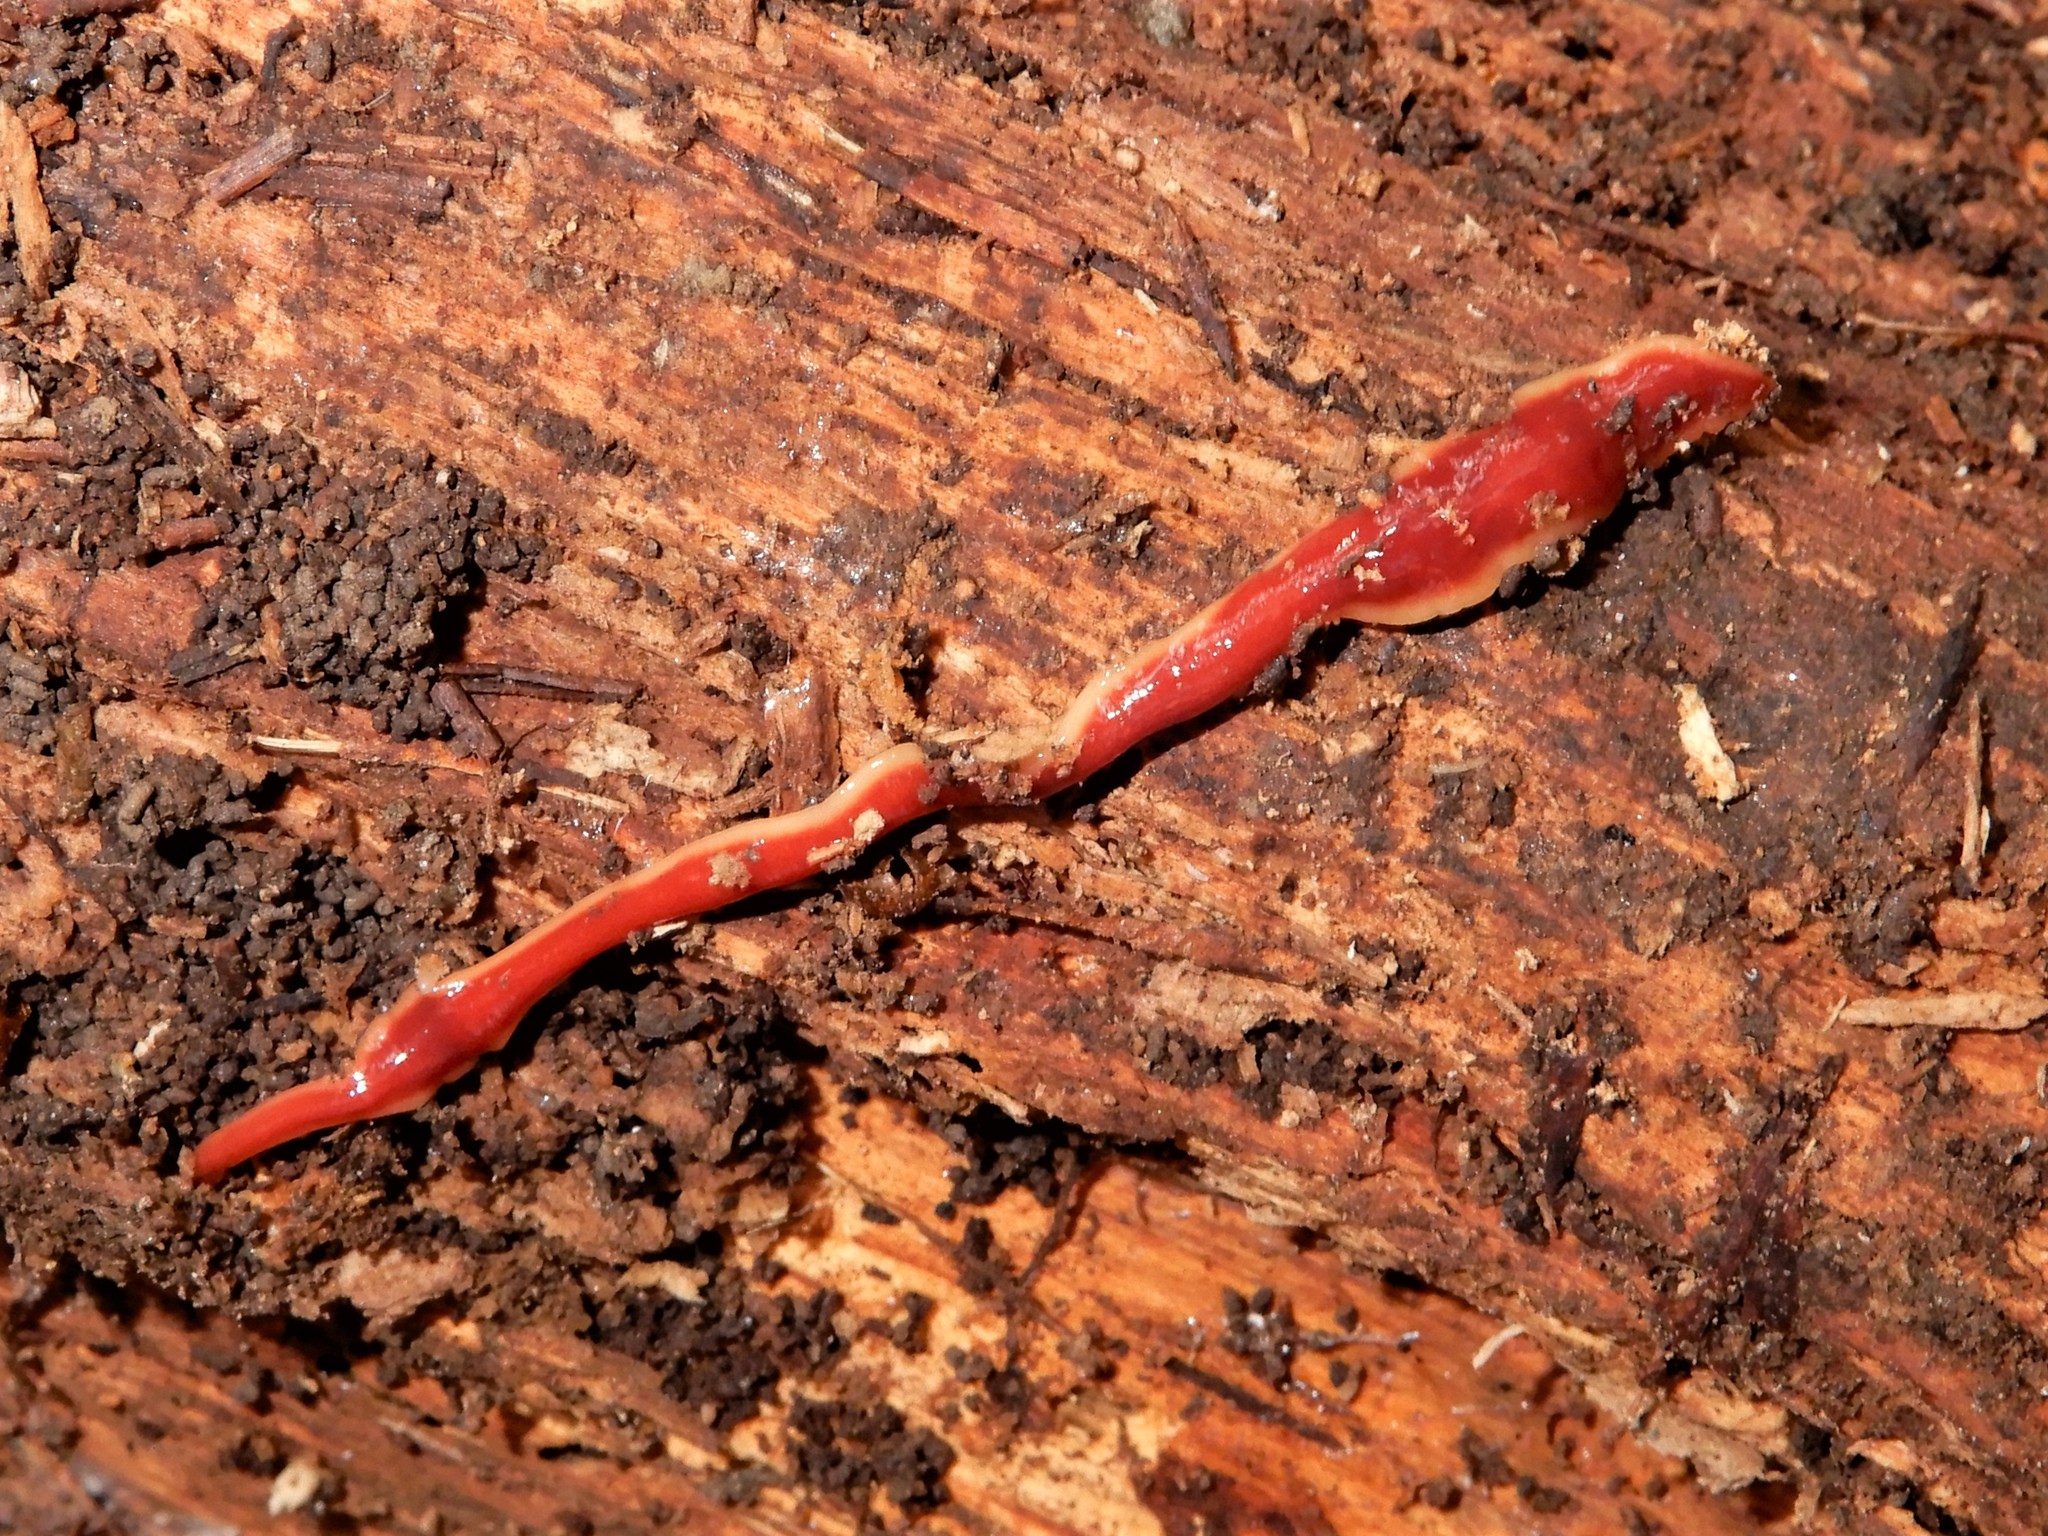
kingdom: Animalia
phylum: Platyhelminthes
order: Tricladida
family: Geoplanidae
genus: Arthurdendyus
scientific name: Arthurdendyus testaceus
